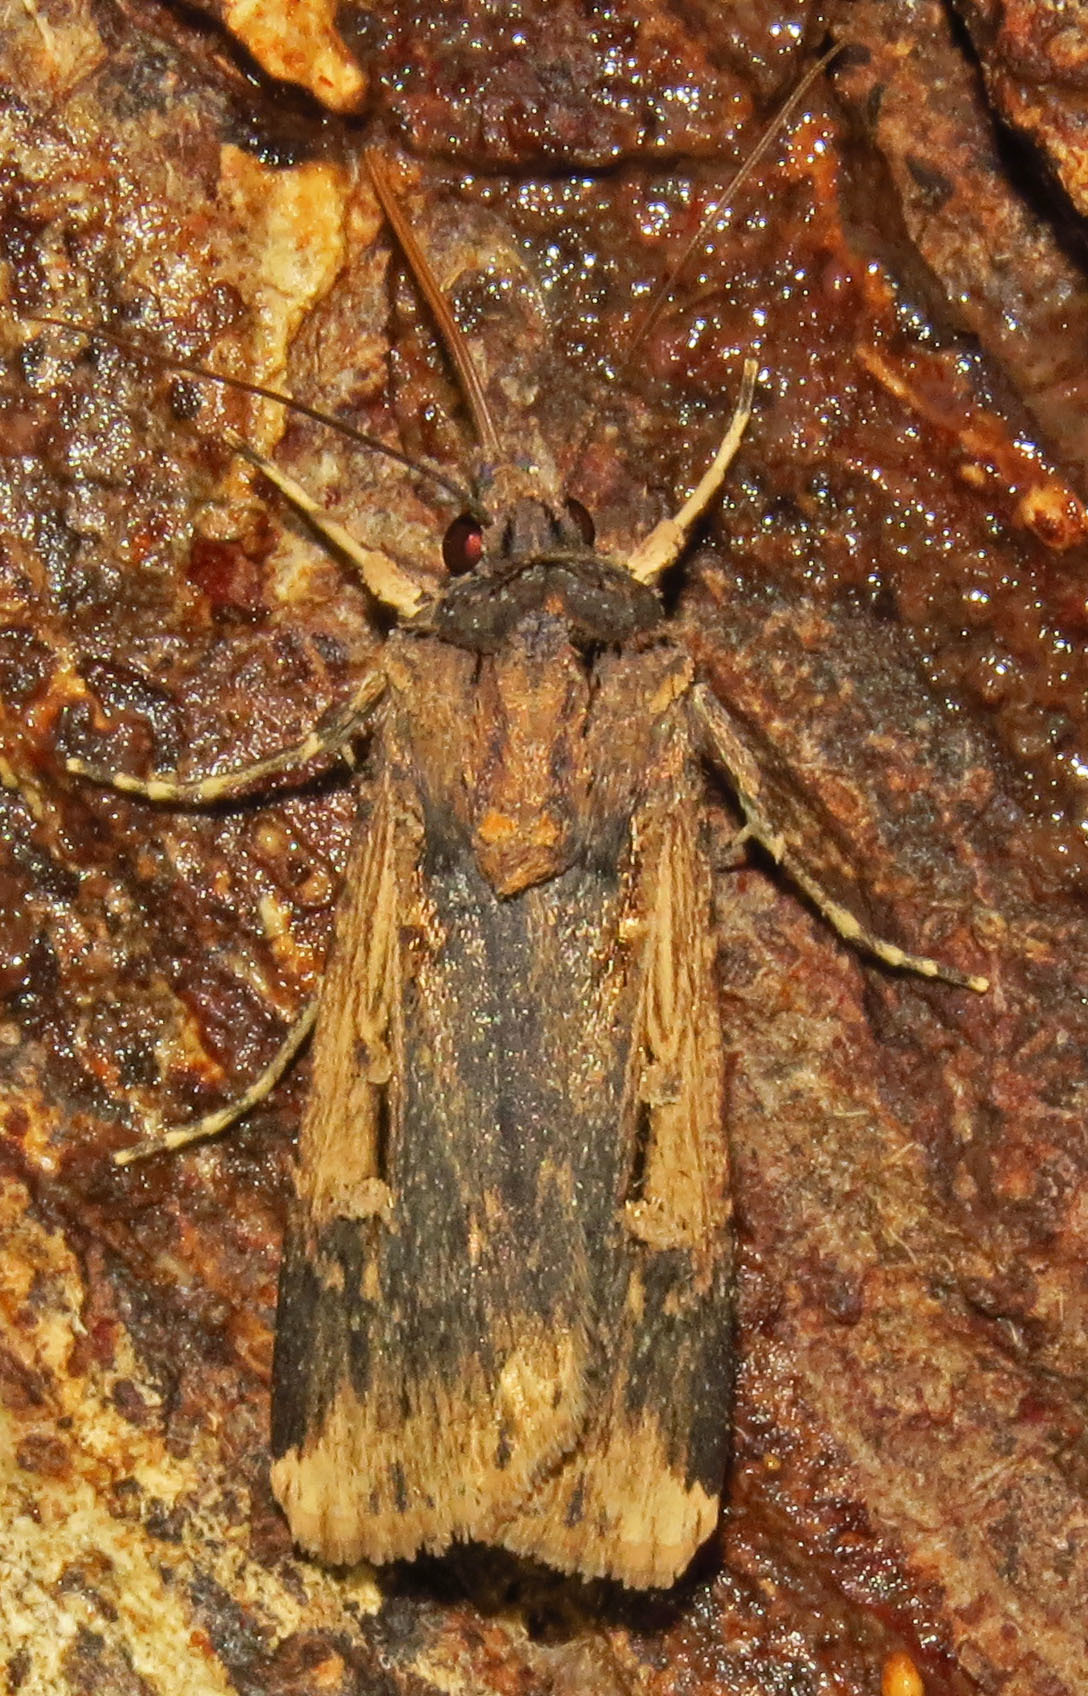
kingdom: Animalia
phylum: Arthropoda
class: Insecta
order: Lepidoptera
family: Noctuidae
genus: Feltia
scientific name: Feltia subterranea
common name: Granulate cutworm
